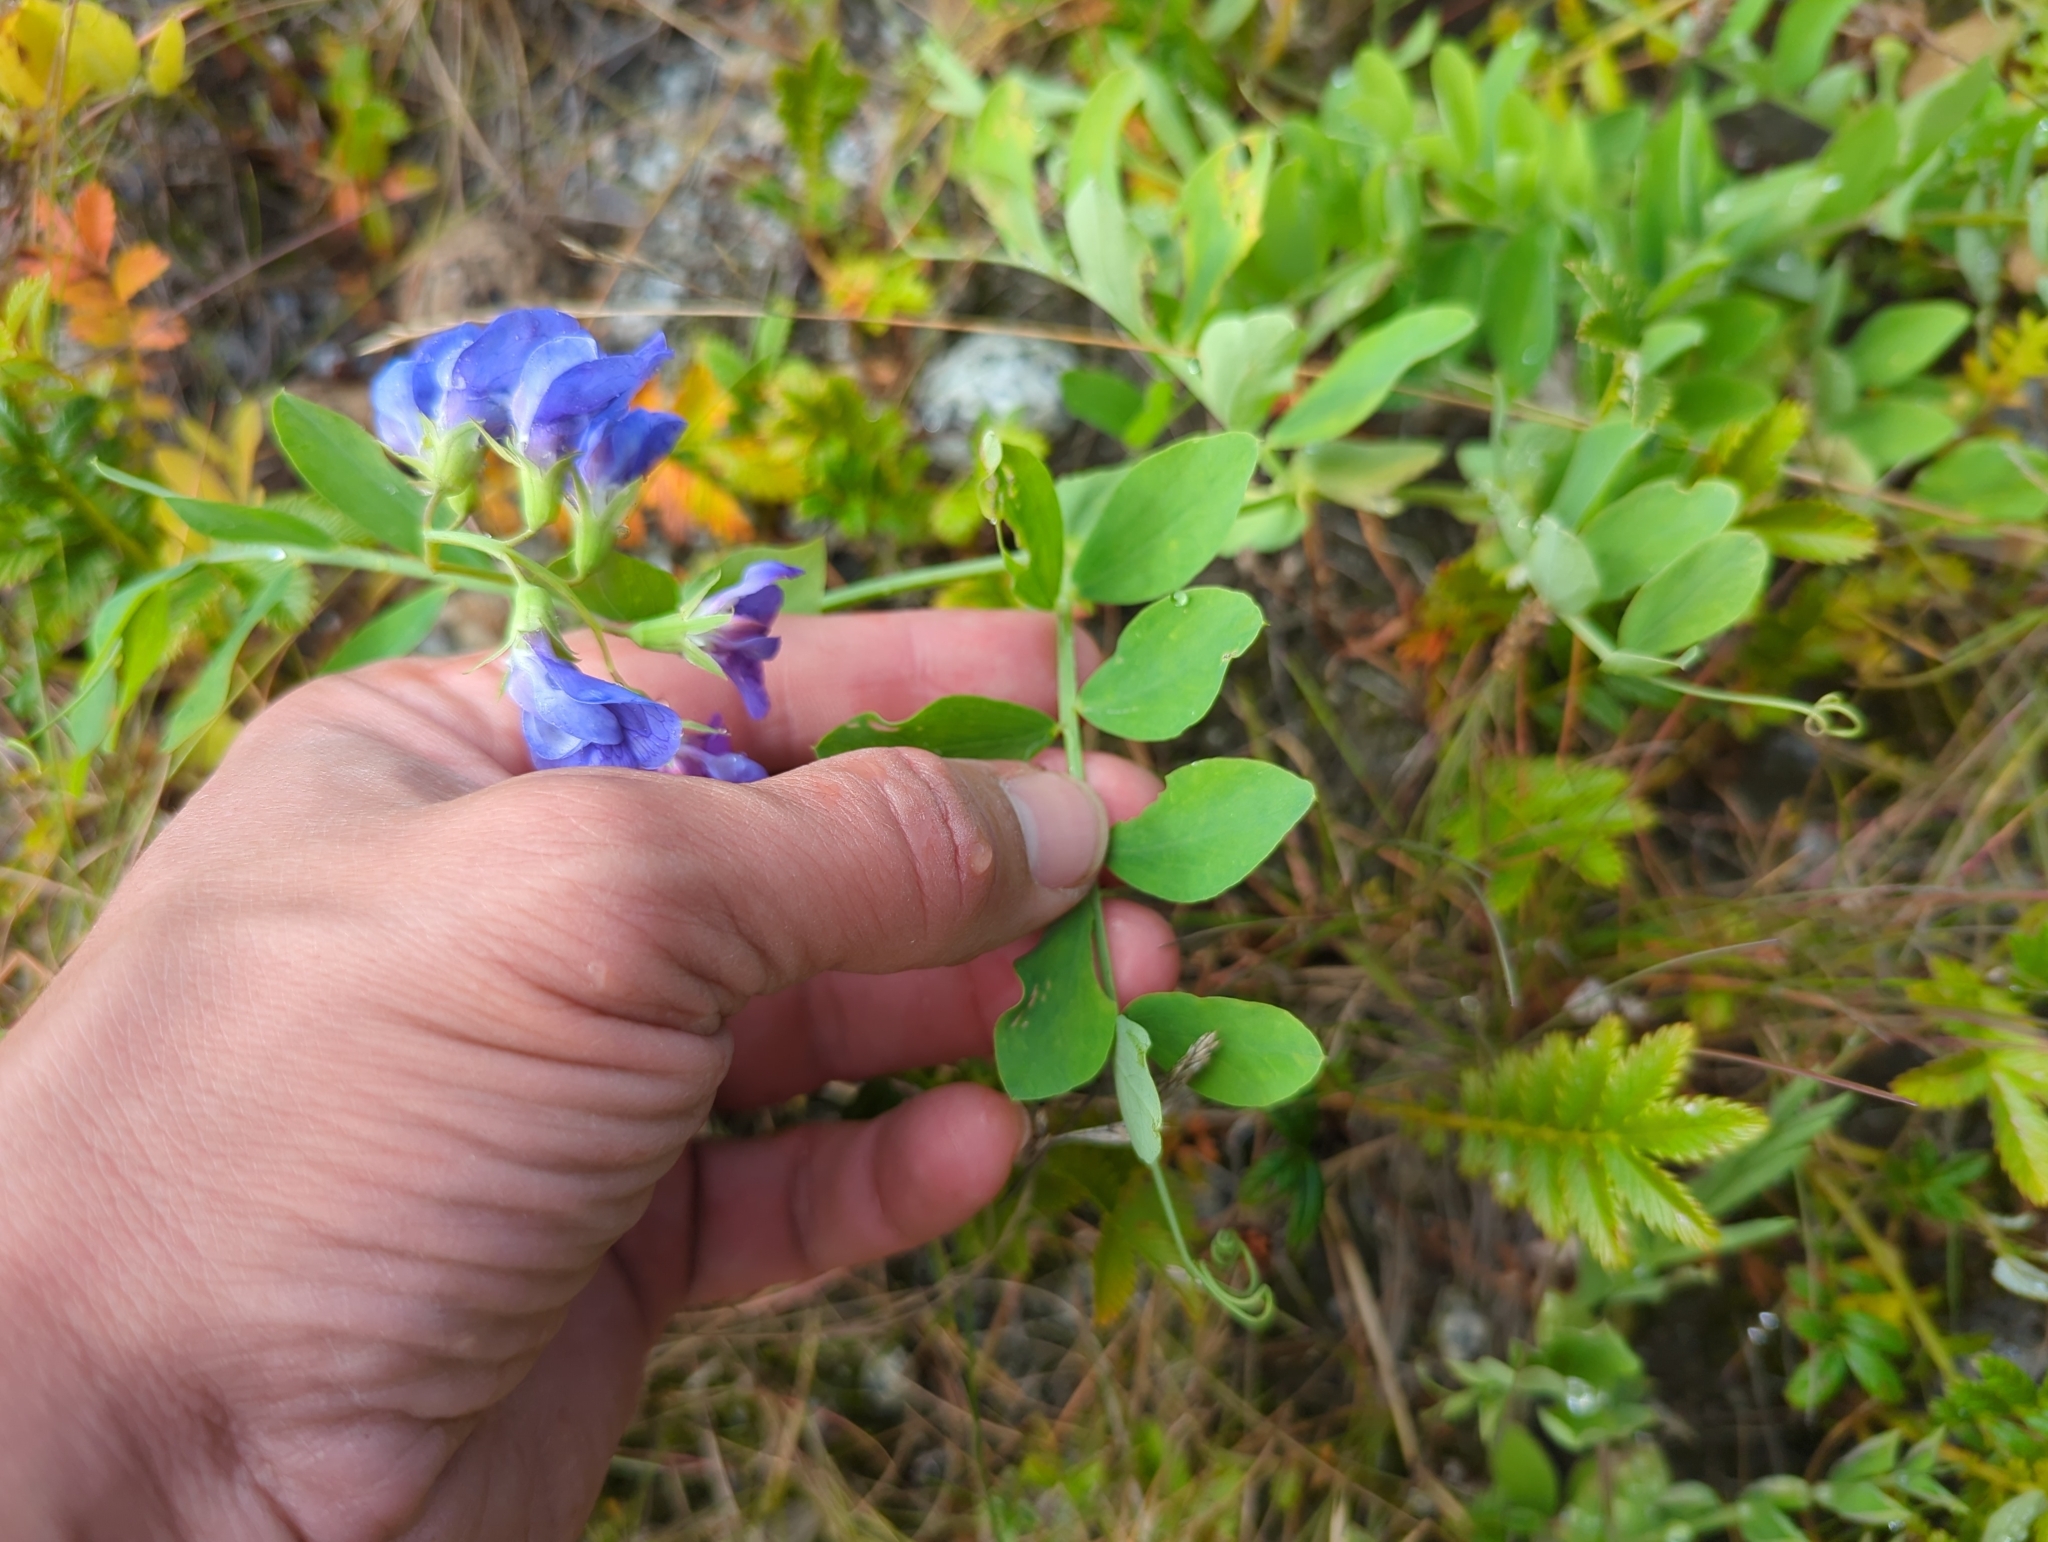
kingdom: Plantae
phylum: Tracheophyta
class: Magnoliopsida
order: Fabales
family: Fabaceae
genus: Lathyrus
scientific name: Lathyrus japonicus
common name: Sea pea
